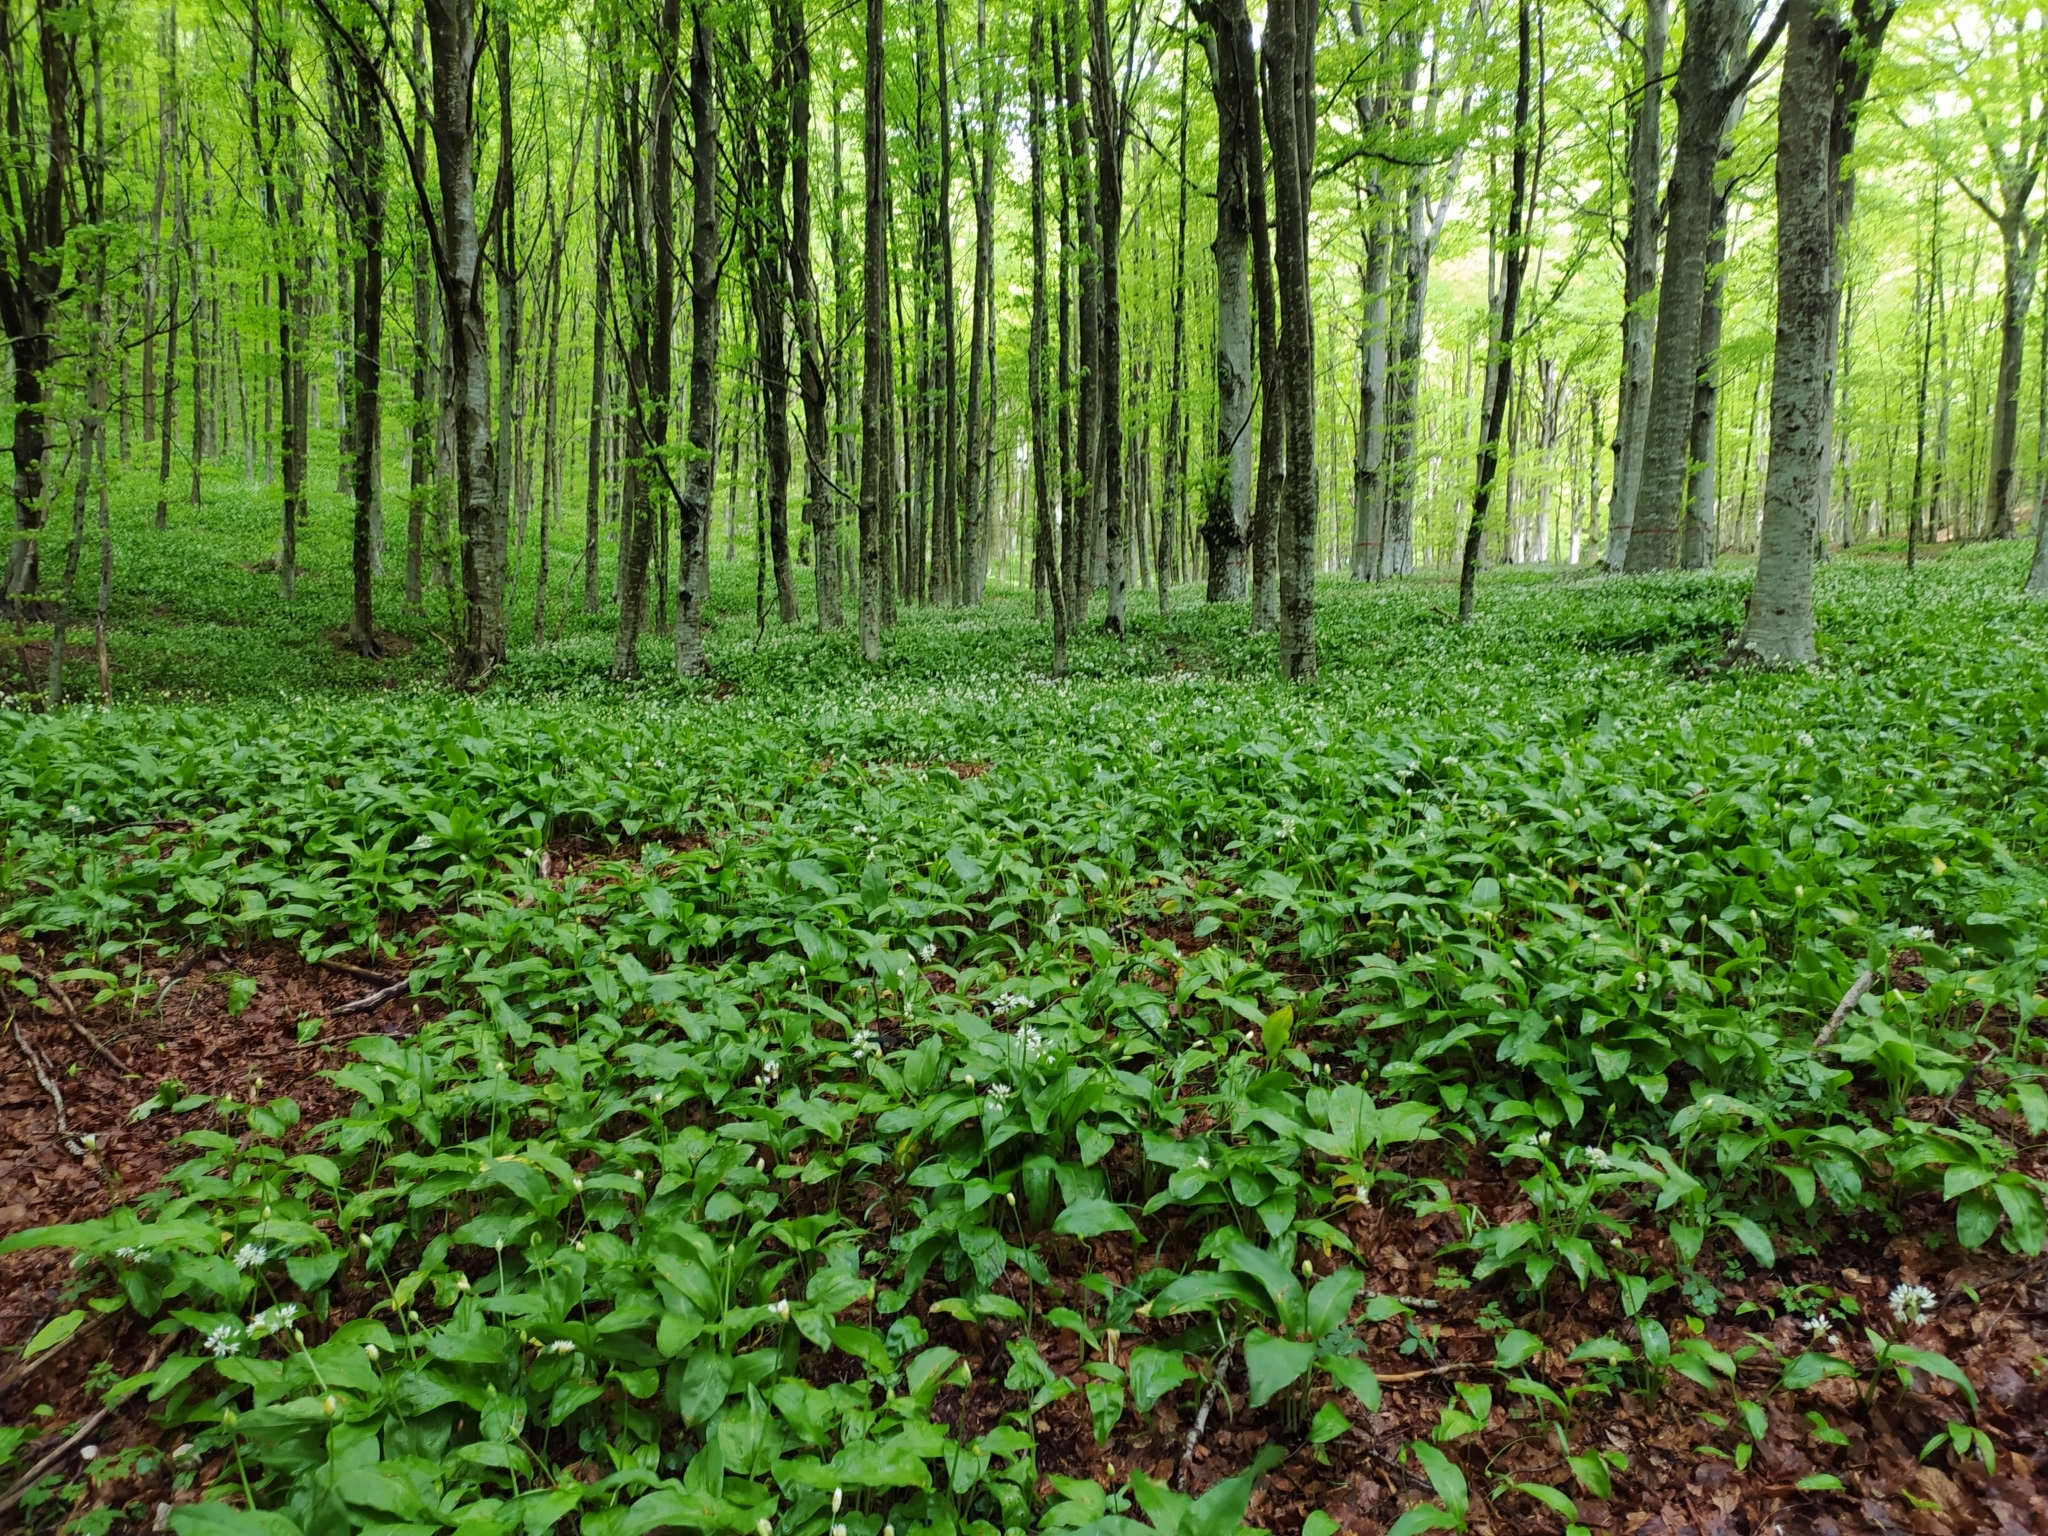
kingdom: Plantae
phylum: Tracheophyta
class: Liliopsida
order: Asparagales
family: Amaryllidaceae
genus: Allium
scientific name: Allium ursinum
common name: Ramsons
